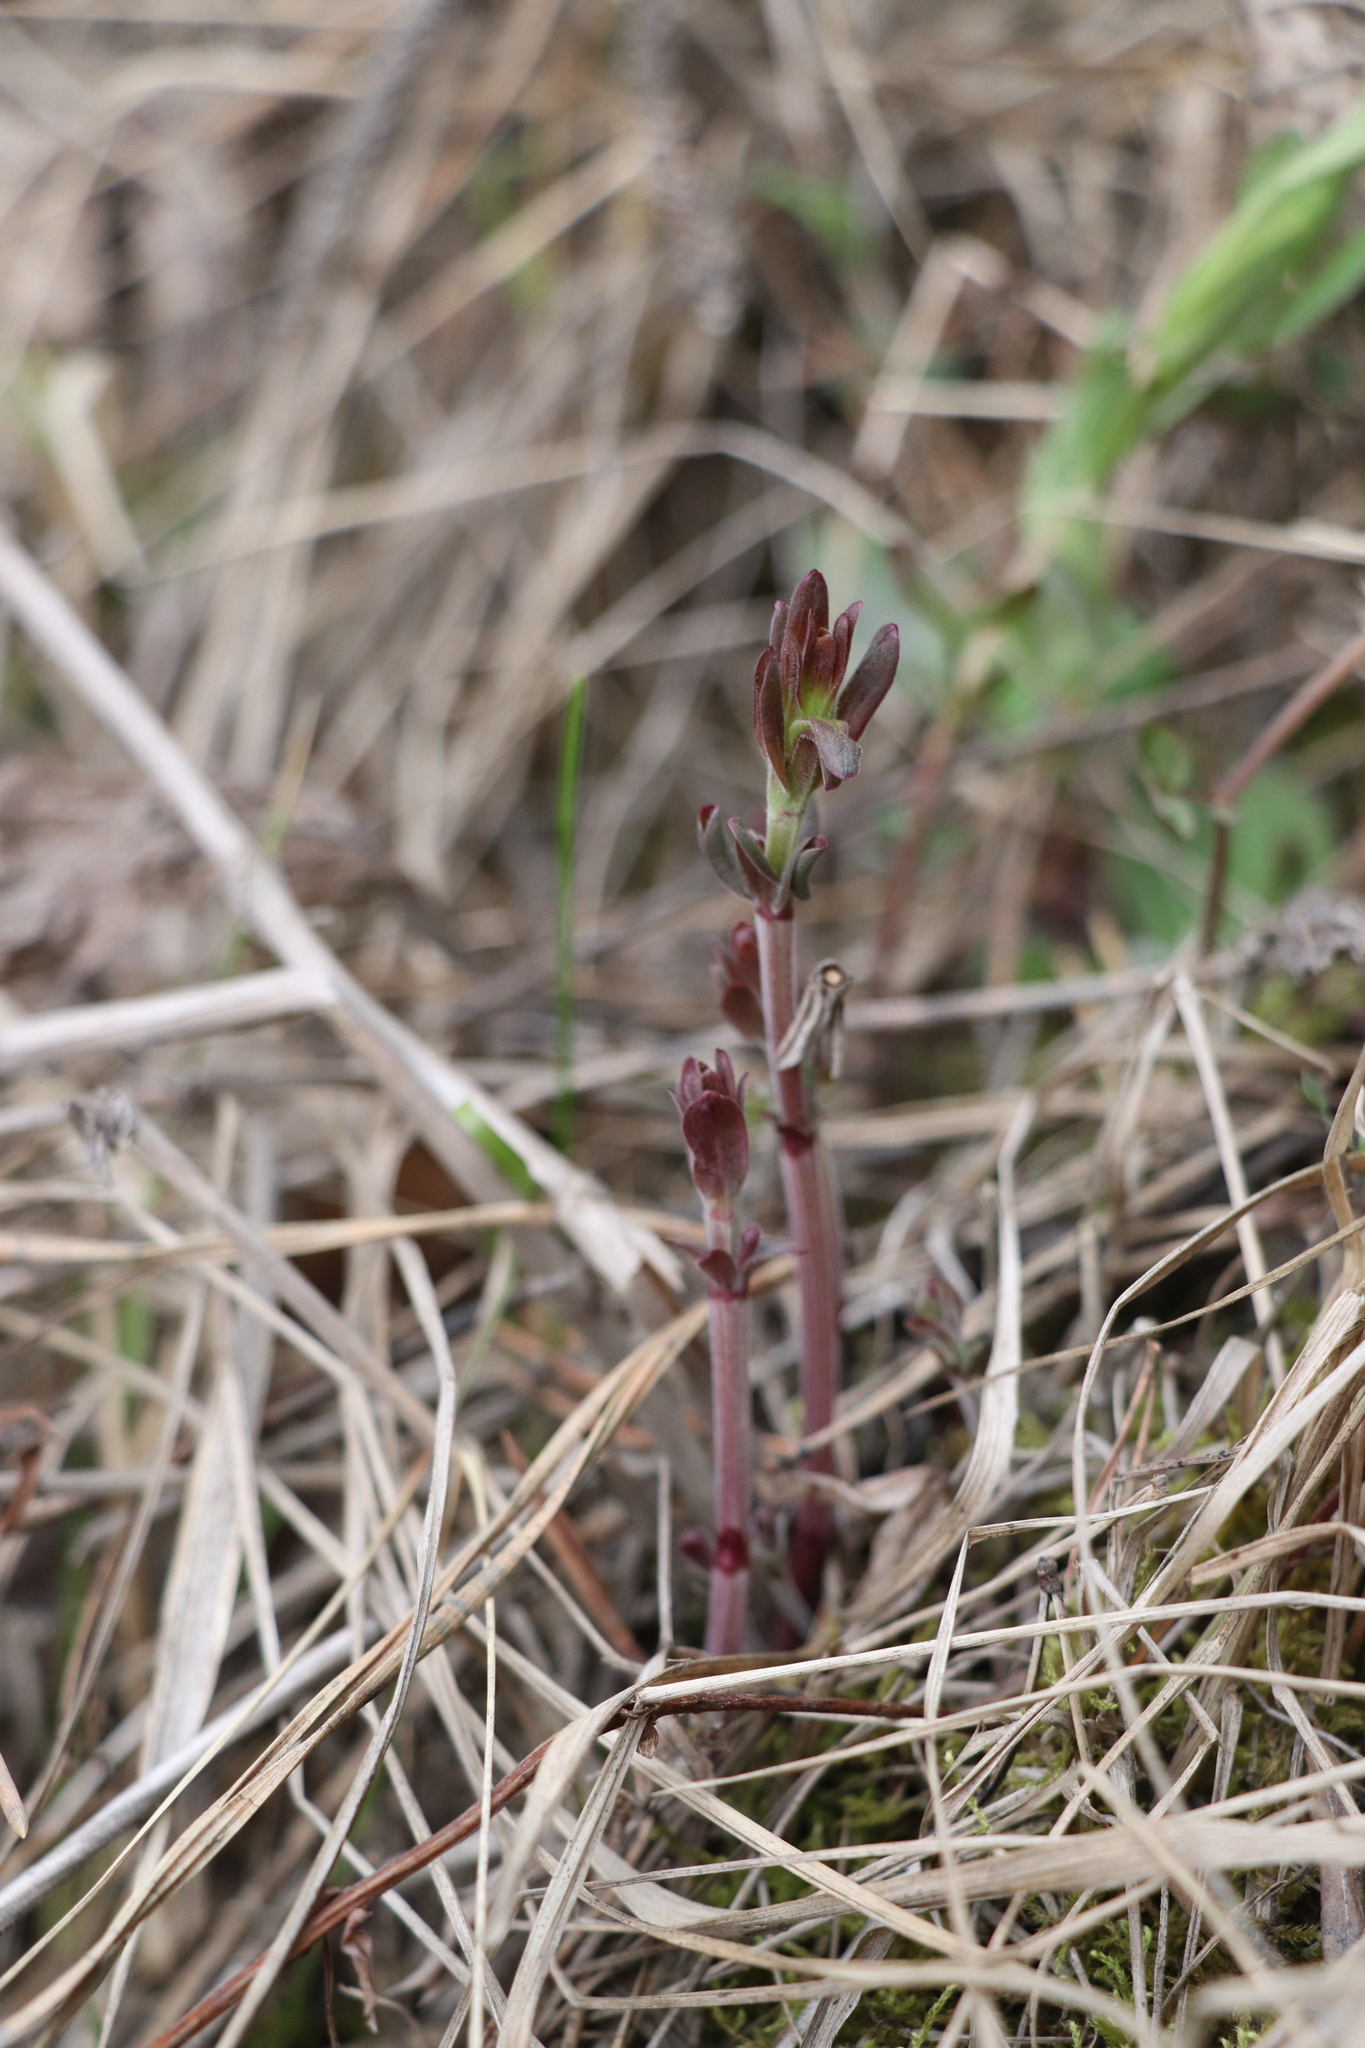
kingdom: Plantae
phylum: Tracheophyta
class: Magnoliopsida
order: Gentianales
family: Rubiaceae
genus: Galium
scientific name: Galium boreale
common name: Northern bedstraw
